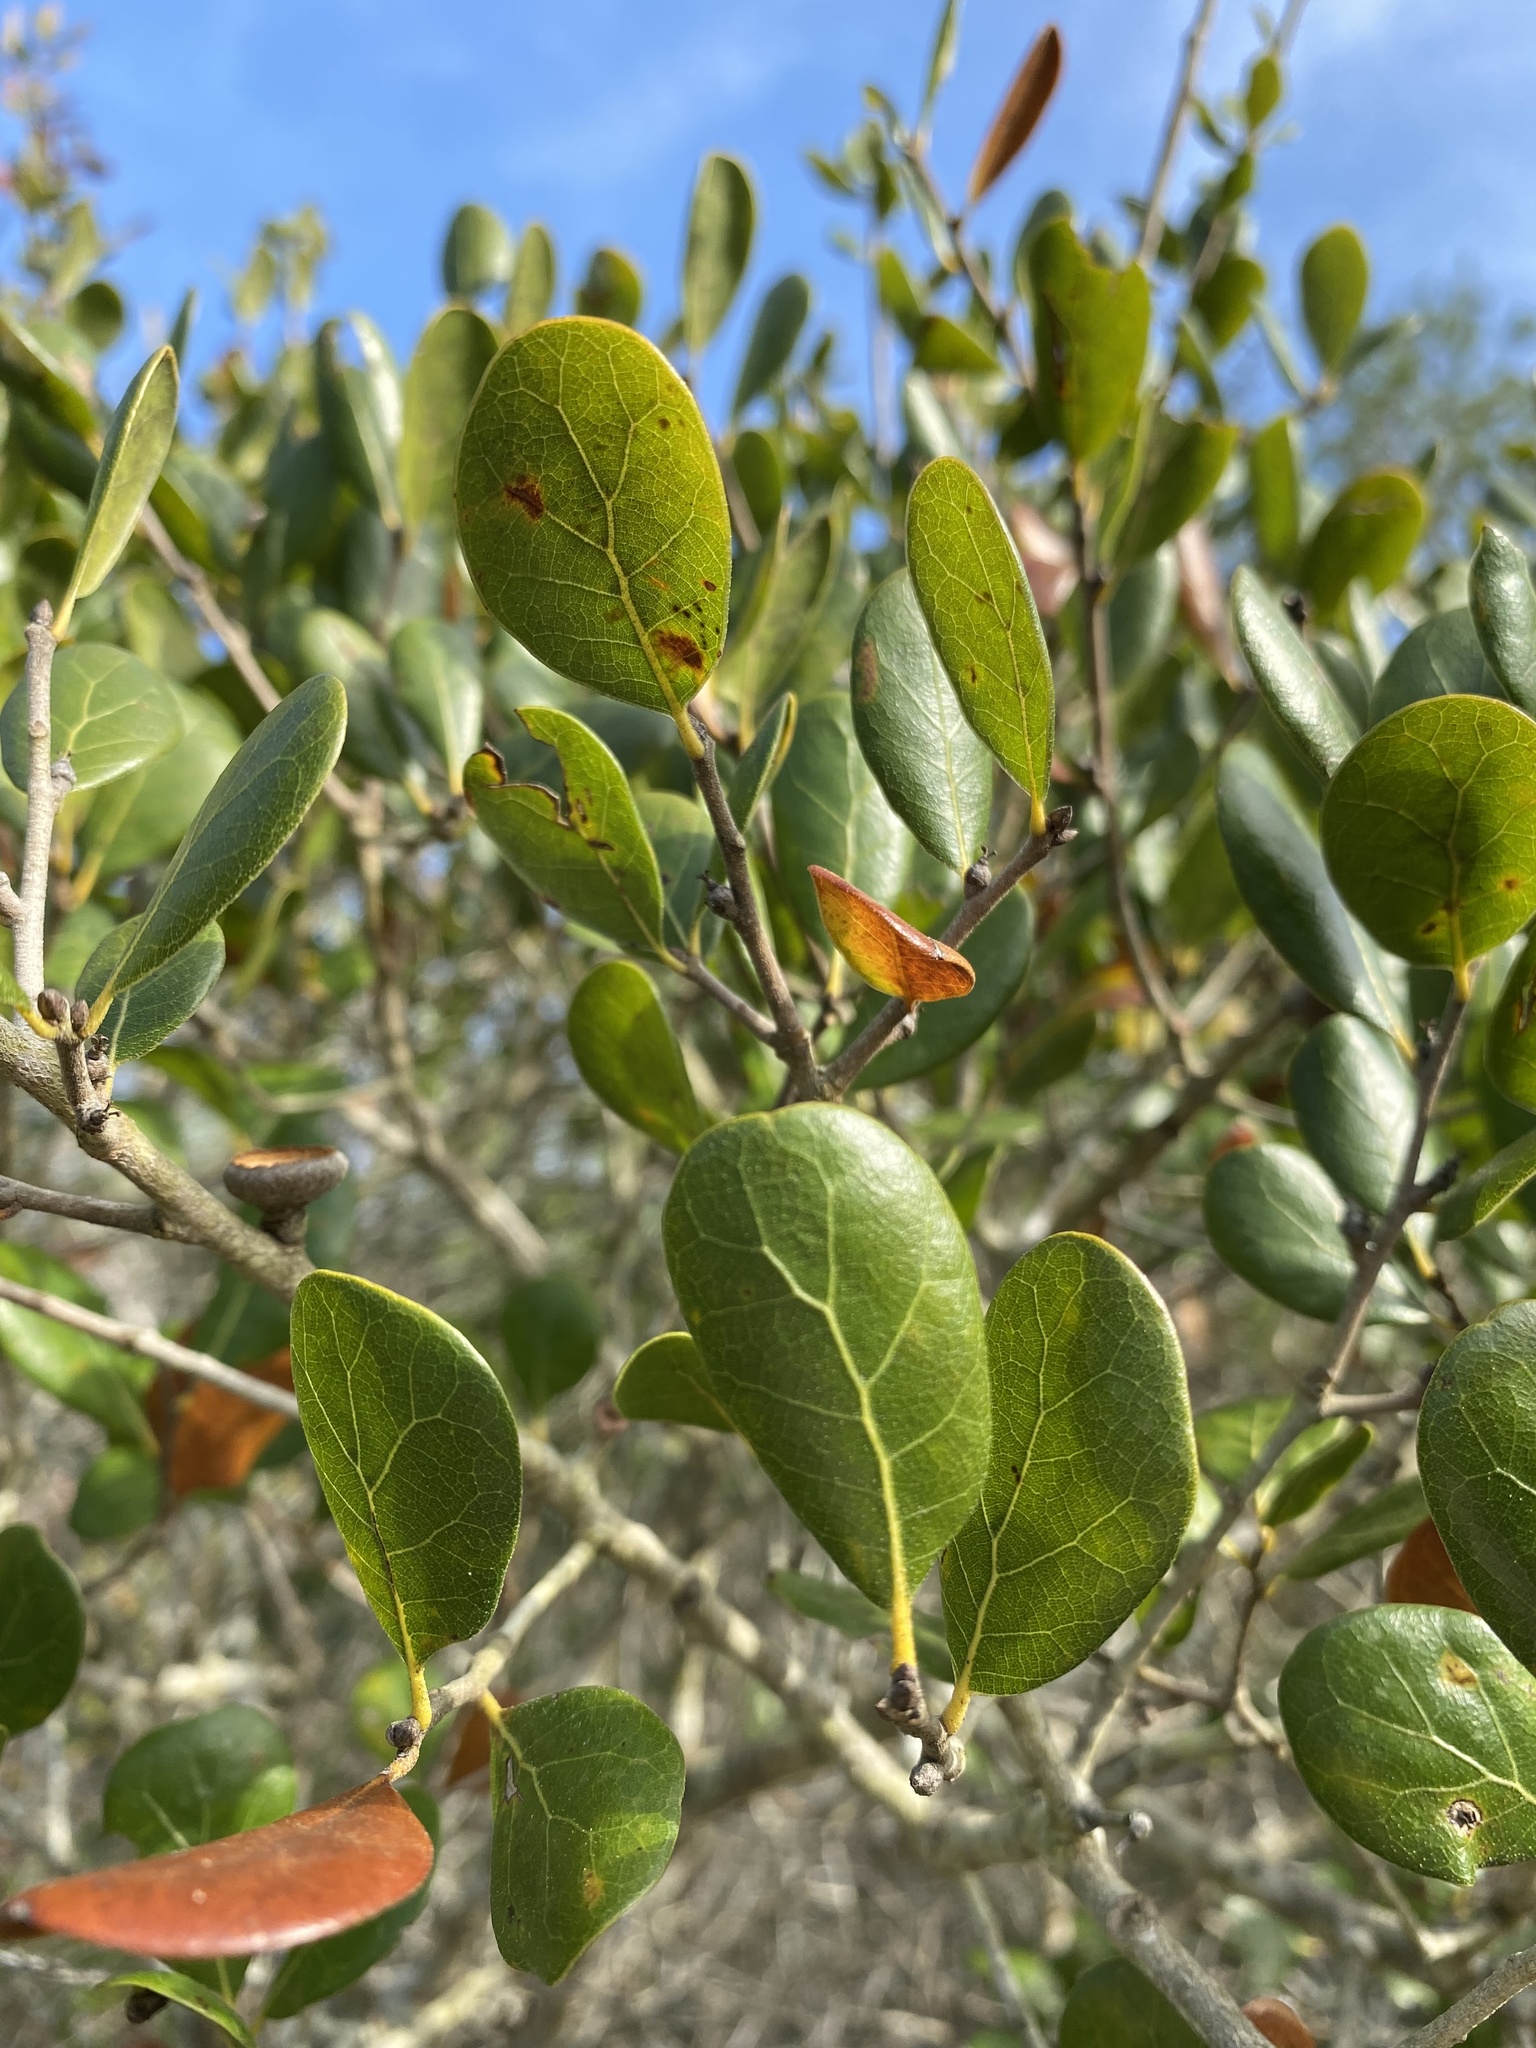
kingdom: Plantae
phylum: Tracheophyta
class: Magnoliopsida
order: Fagales
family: Fagaceae
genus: Quercus
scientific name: Quercus myrtifolia
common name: Myrtle oak
